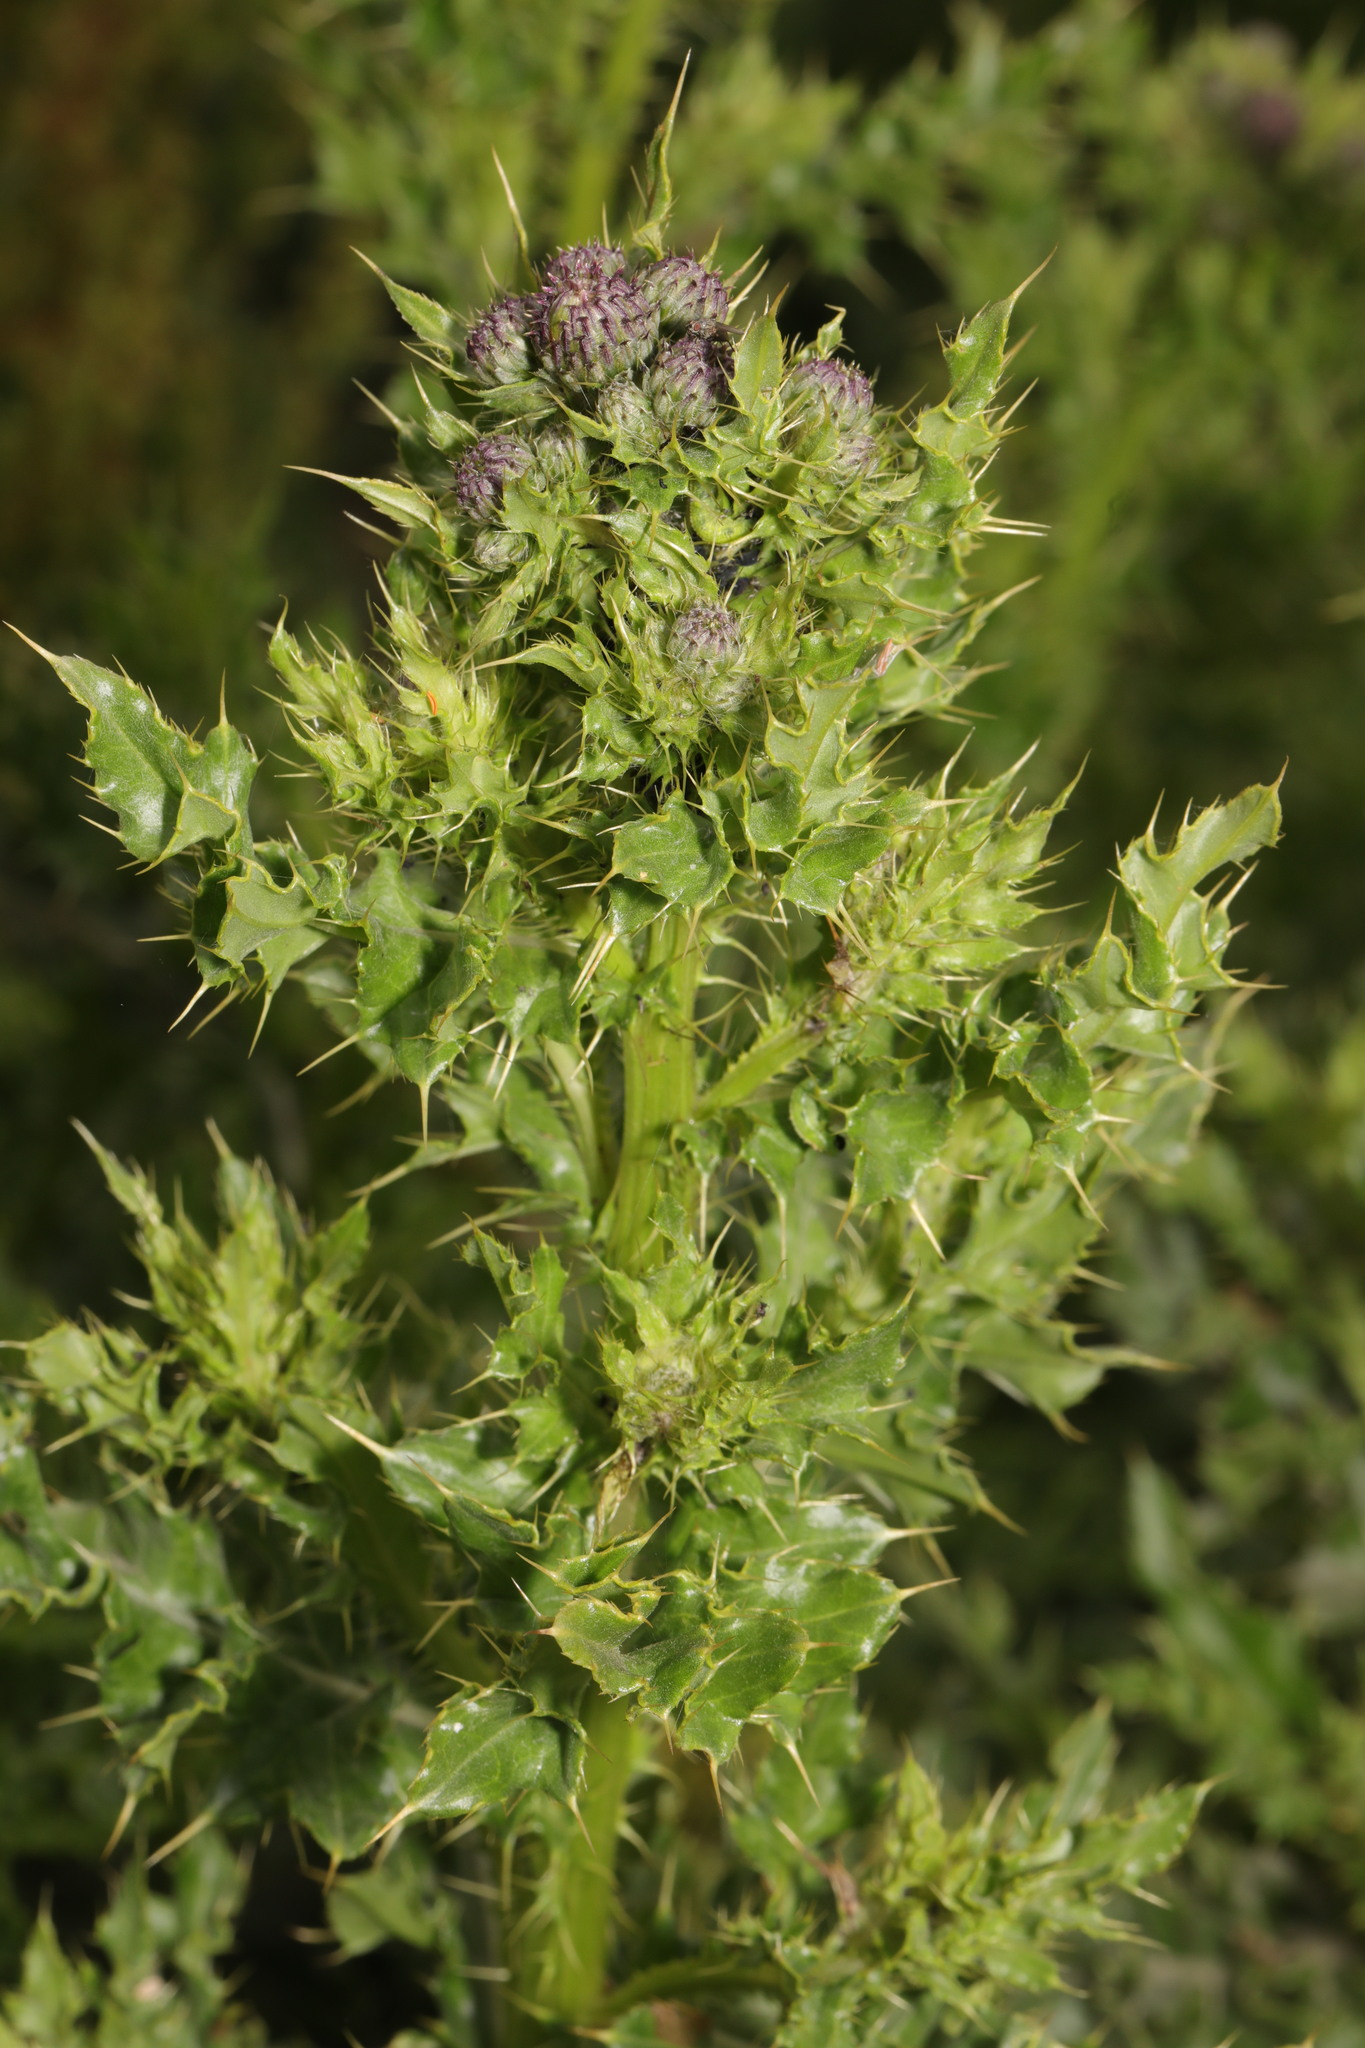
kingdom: Plantae
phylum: Tracheophyta
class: Magnoliopsida
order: Asterales
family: Asteraceae
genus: Cirsium
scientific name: Cirsium arvense
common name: Creeping thistle
